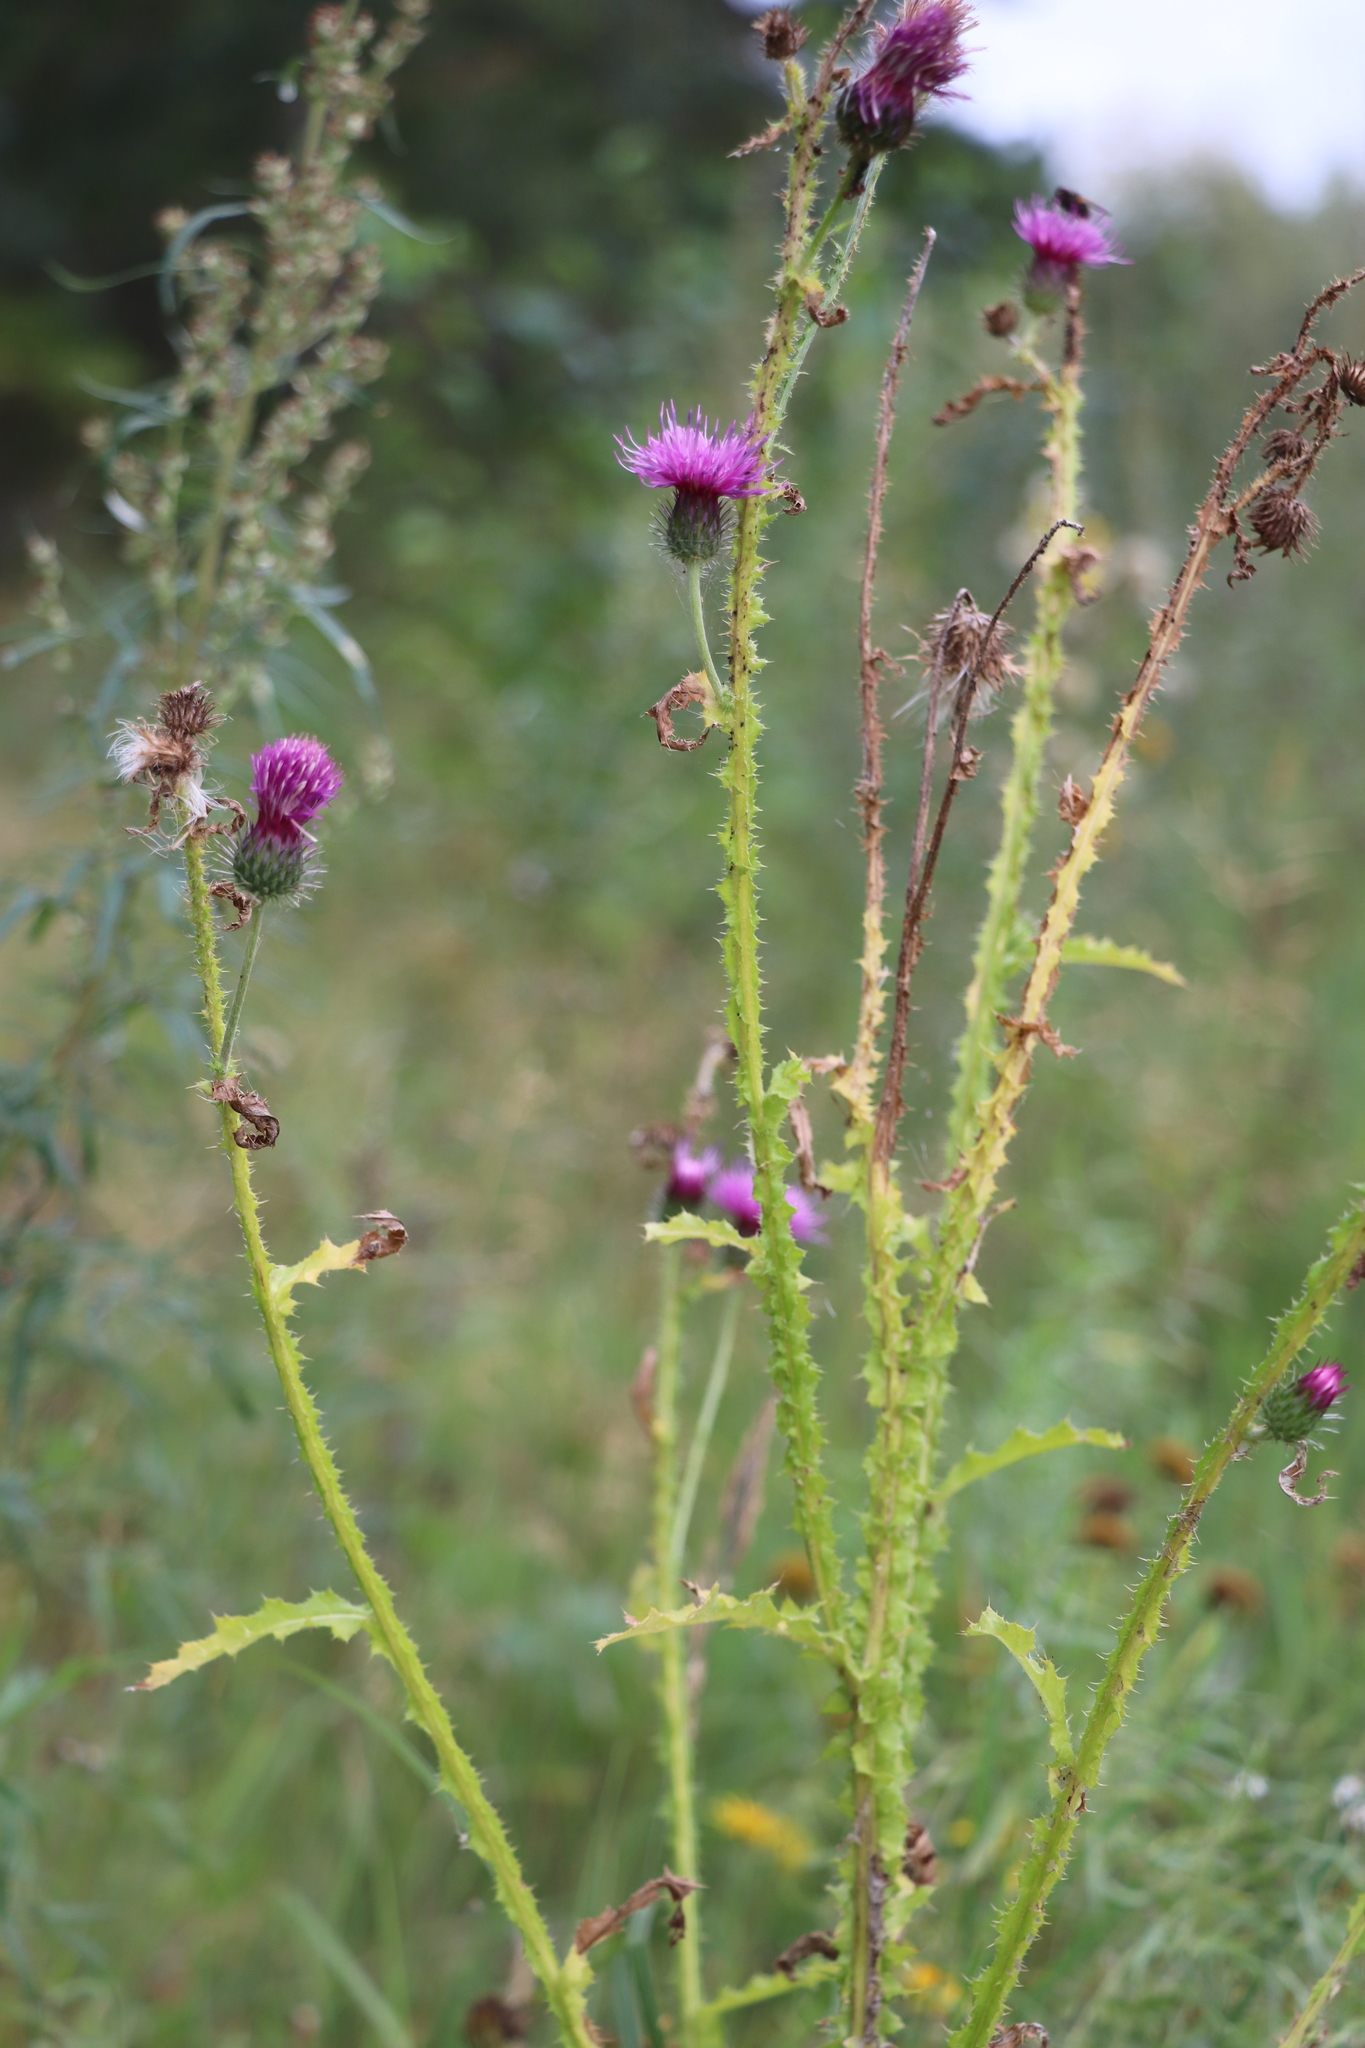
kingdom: Plantae
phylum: Tracheophyta
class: Magnoliopsida
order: Asterales
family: Asteraceae
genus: Carduus
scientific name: Carduus crispus
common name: Welted thistle
